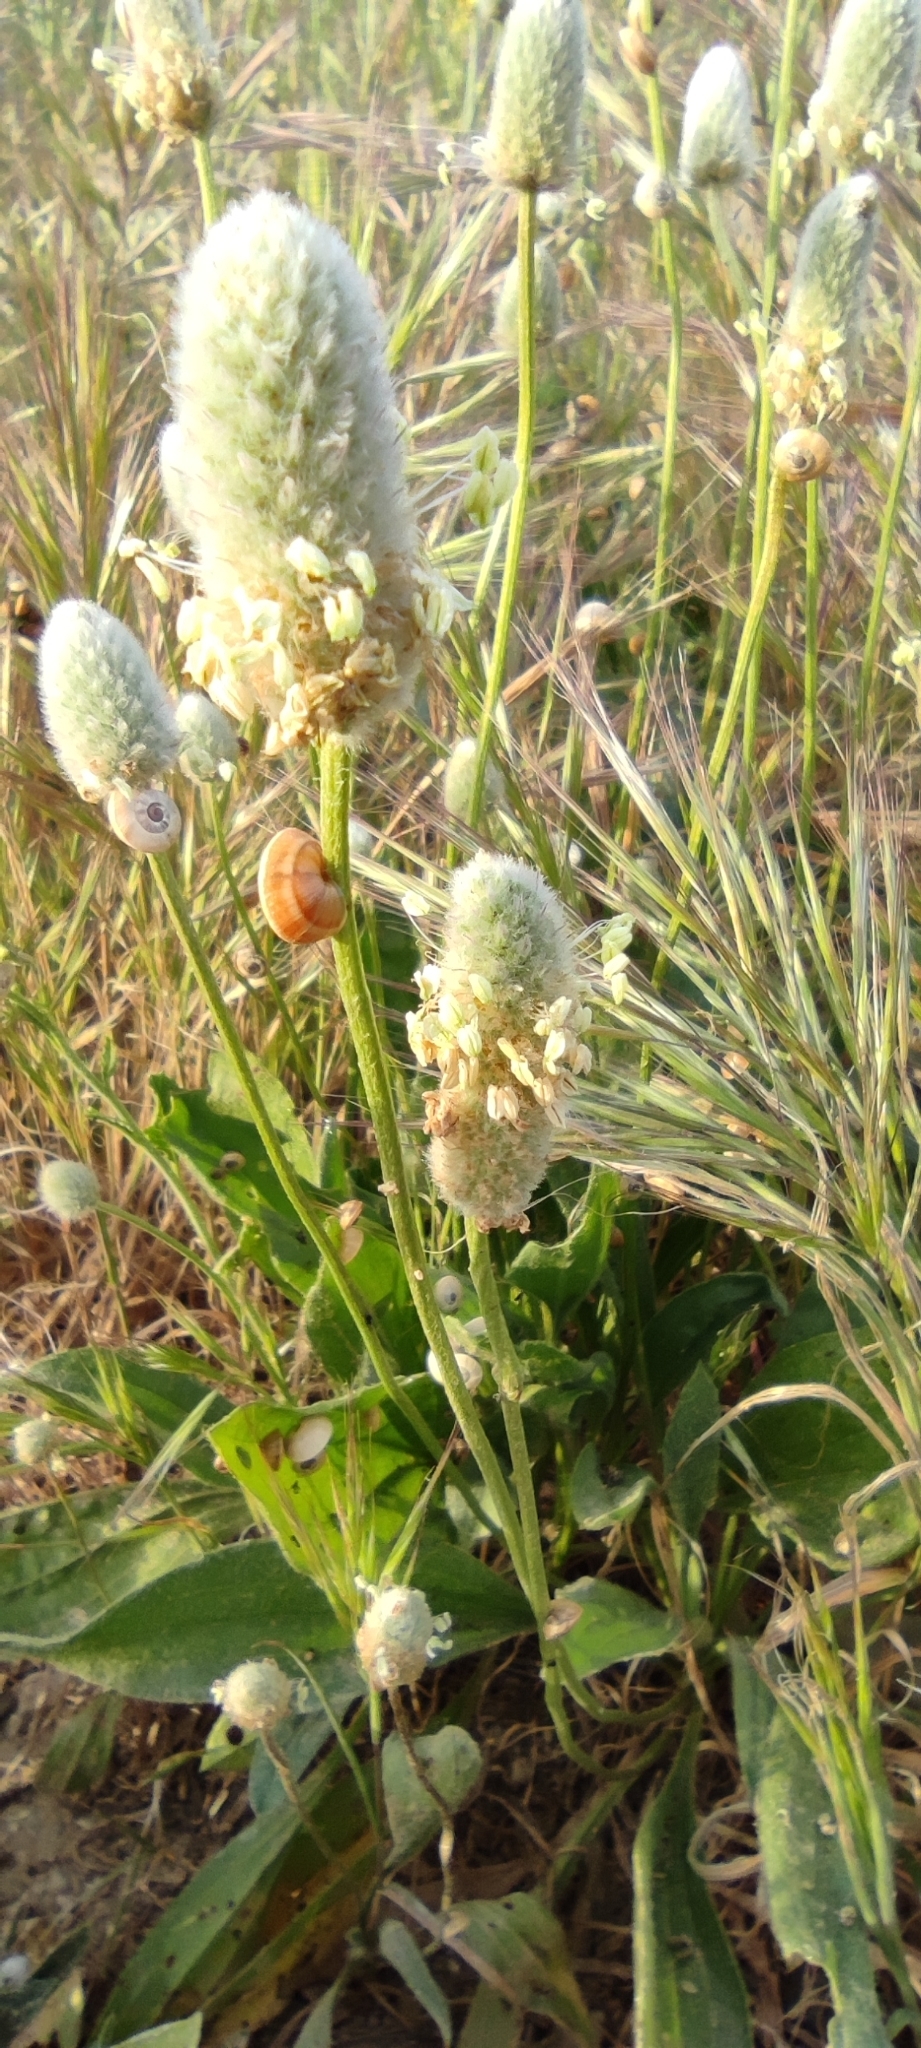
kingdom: Plantae
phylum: Tracheophyta
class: Magnoliopsida
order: Lamiales
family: Plantaginaceae
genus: Plantago
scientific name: Plantago lagopus
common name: Hare-foot plantain
